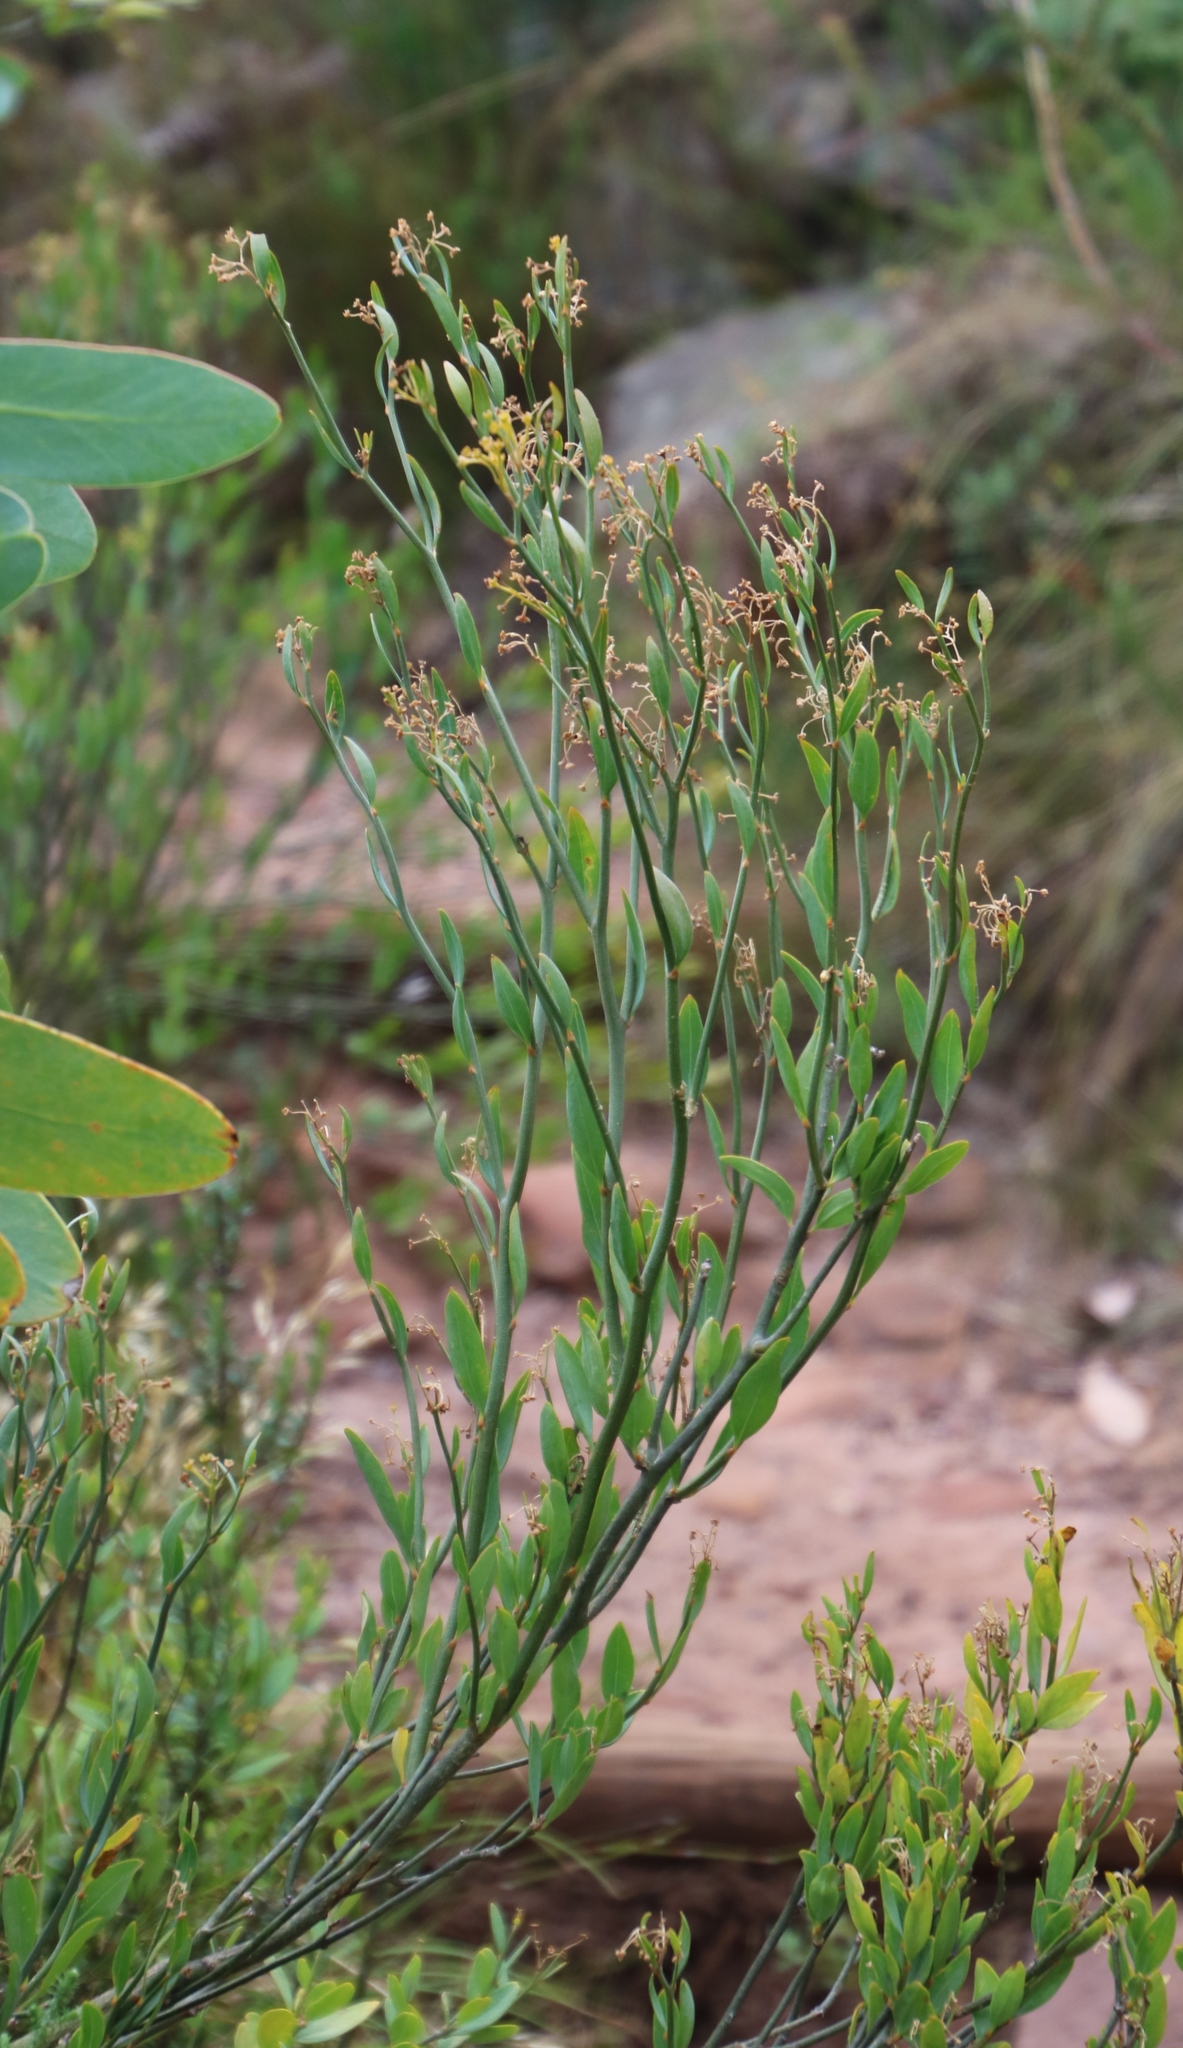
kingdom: Plantae
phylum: Tracheophyta
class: Magnoliopsida
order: Solanales
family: Montiniaceae
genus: Montinia
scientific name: Montinia caryophyllacea
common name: Wild clove-bush
